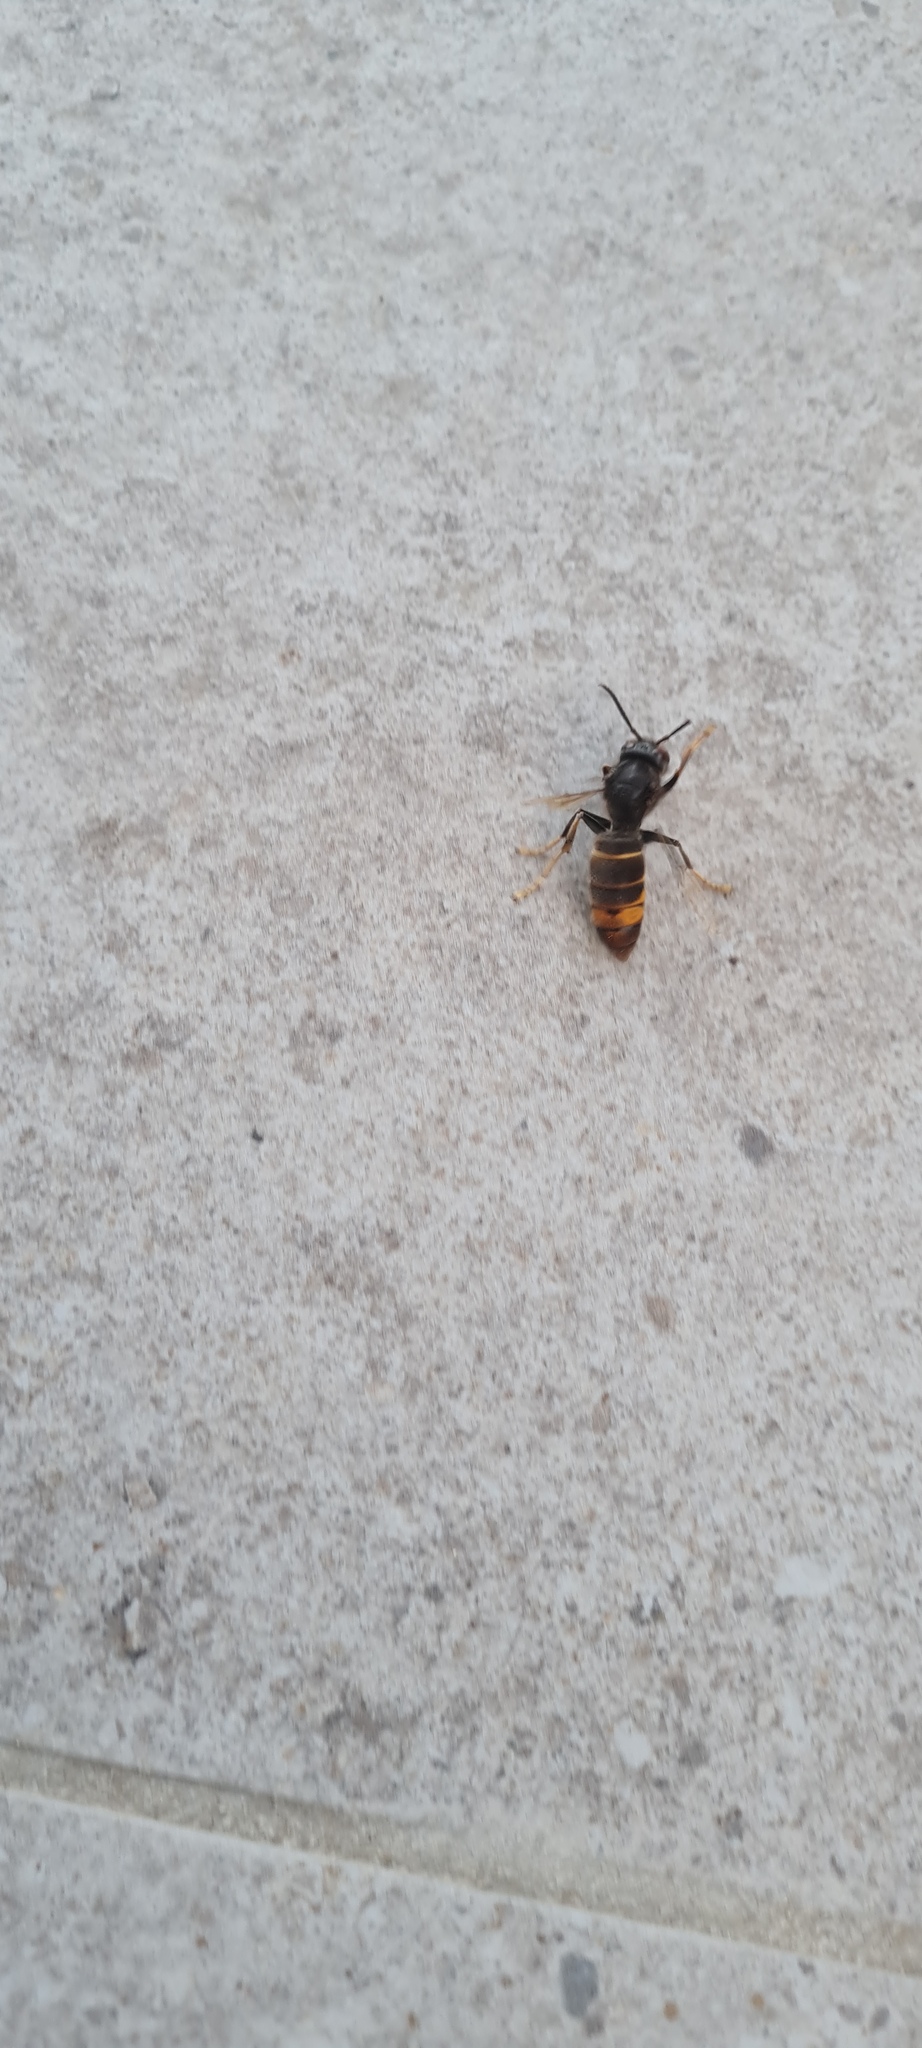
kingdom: Animalia
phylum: Arthropoda
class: Insecta
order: Hymenoptera
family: Vespidae
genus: Vespa
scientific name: Vespa velutina
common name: Asian hornet
